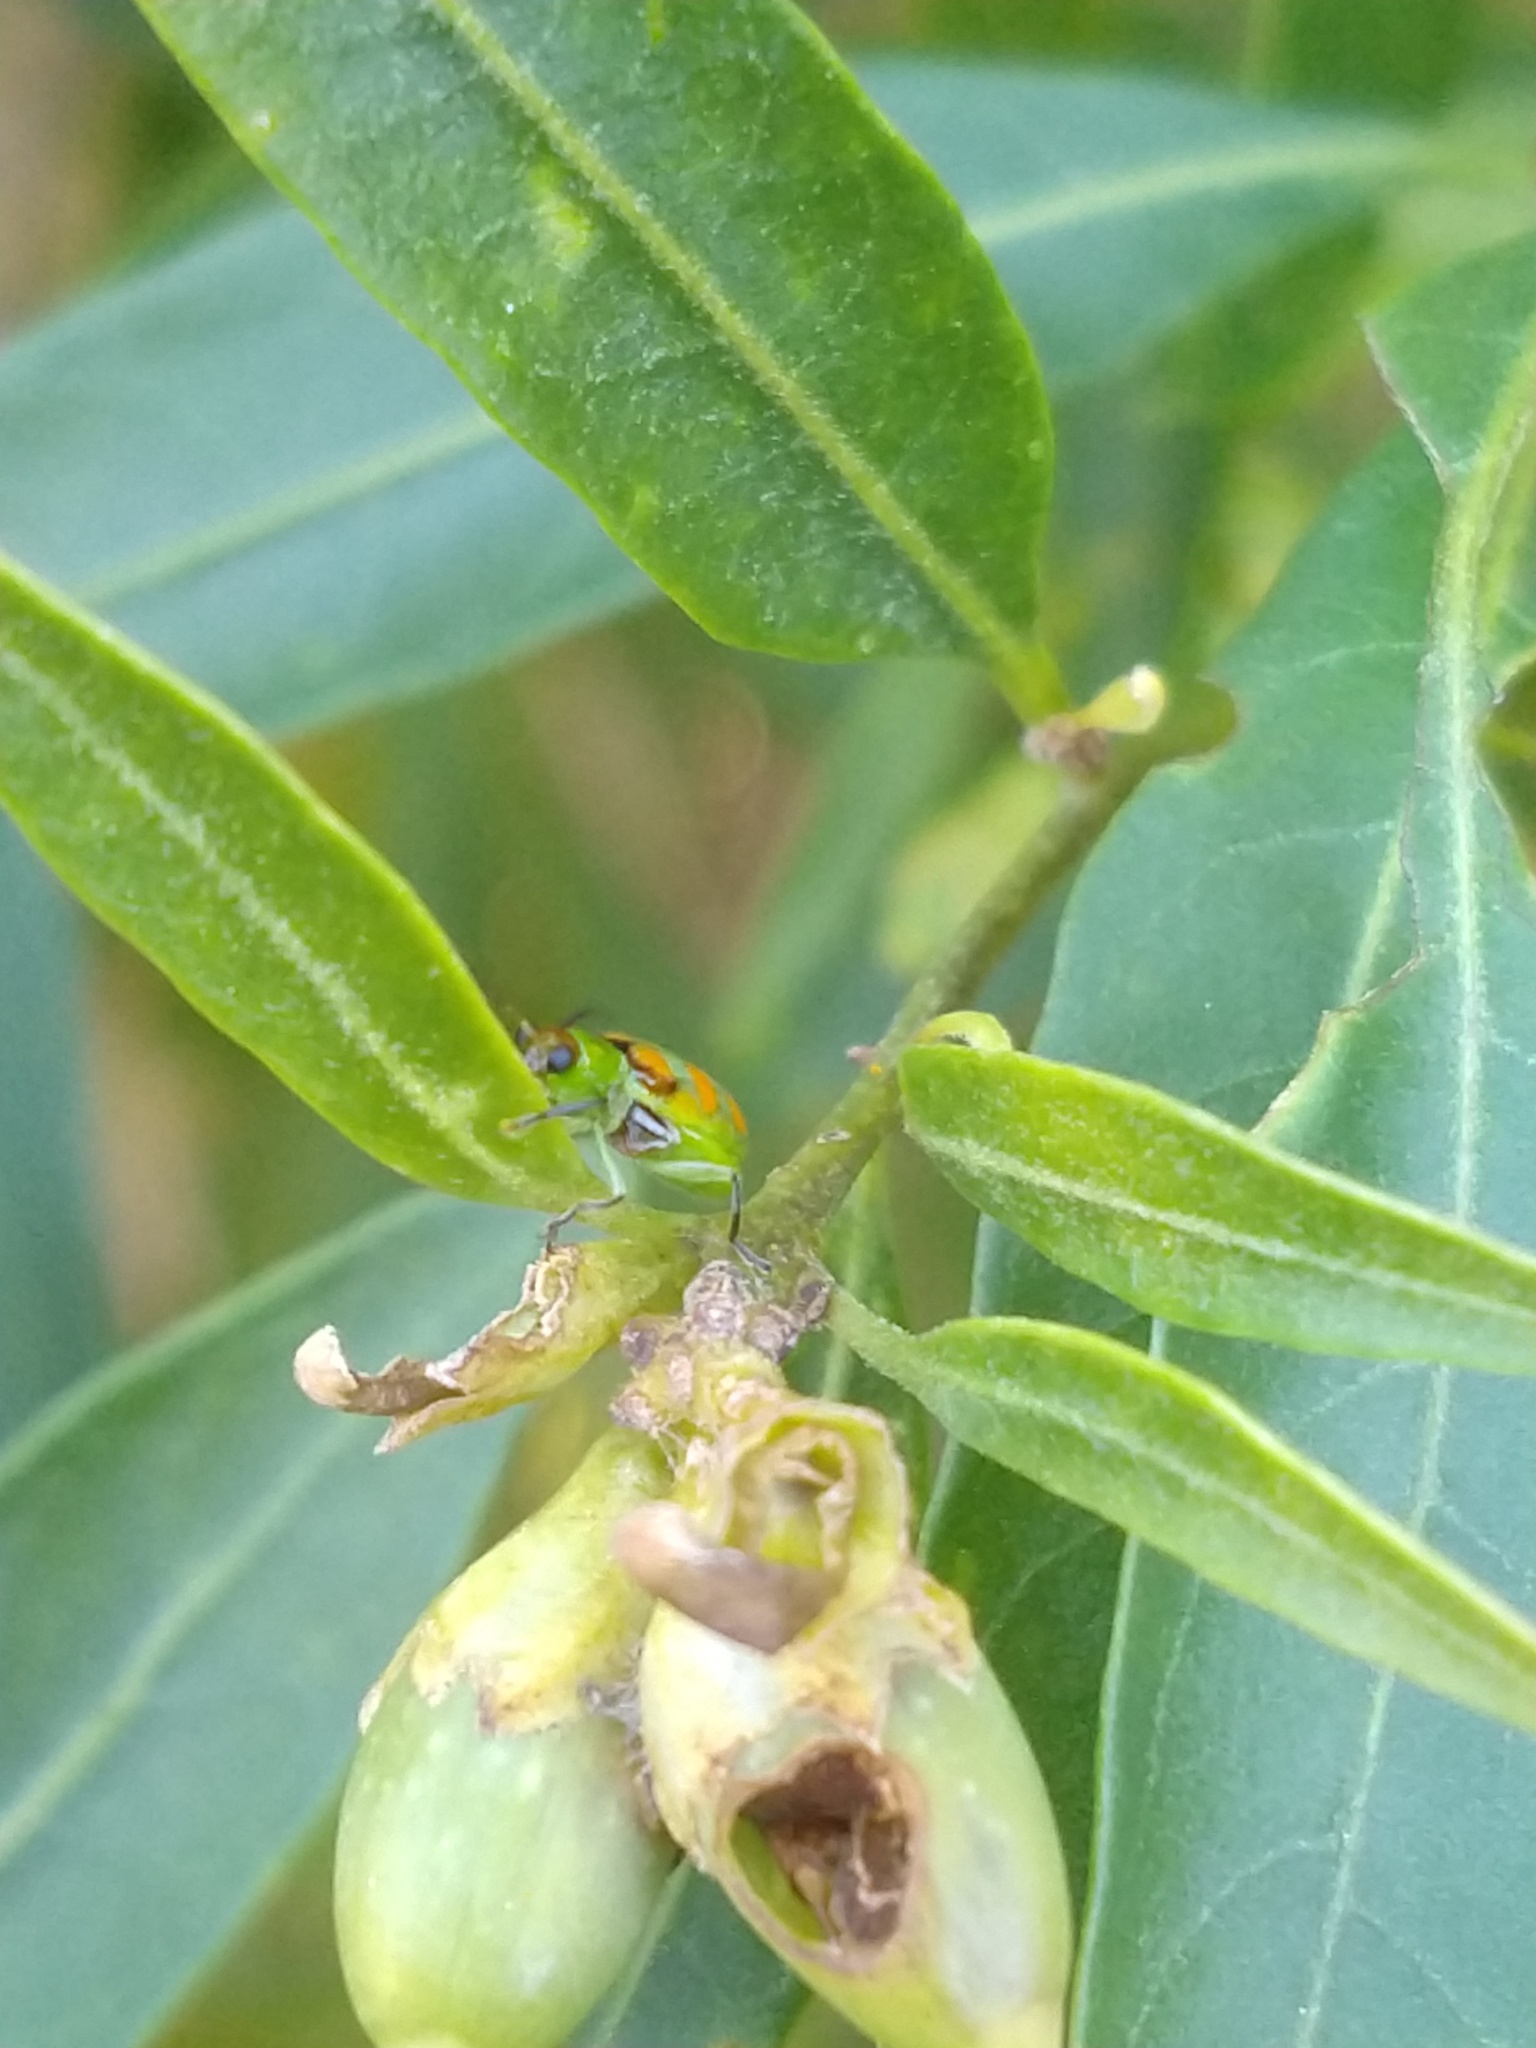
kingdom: Animalia
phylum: Arthropoda
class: Insecta
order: Coleoptera
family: Chrysomelidae
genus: Diabrotica
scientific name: Diabrotica speciosa
